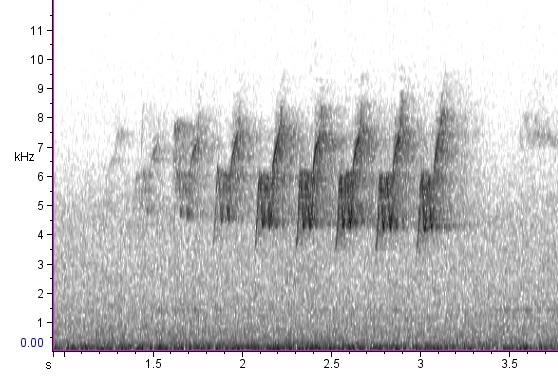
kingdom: Animalia
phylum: Chordata
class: Aves
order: Passeriformes
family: Parulidae
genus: Protonotaria
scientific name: Protonotaria citrea
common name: Prothonotary warbler
